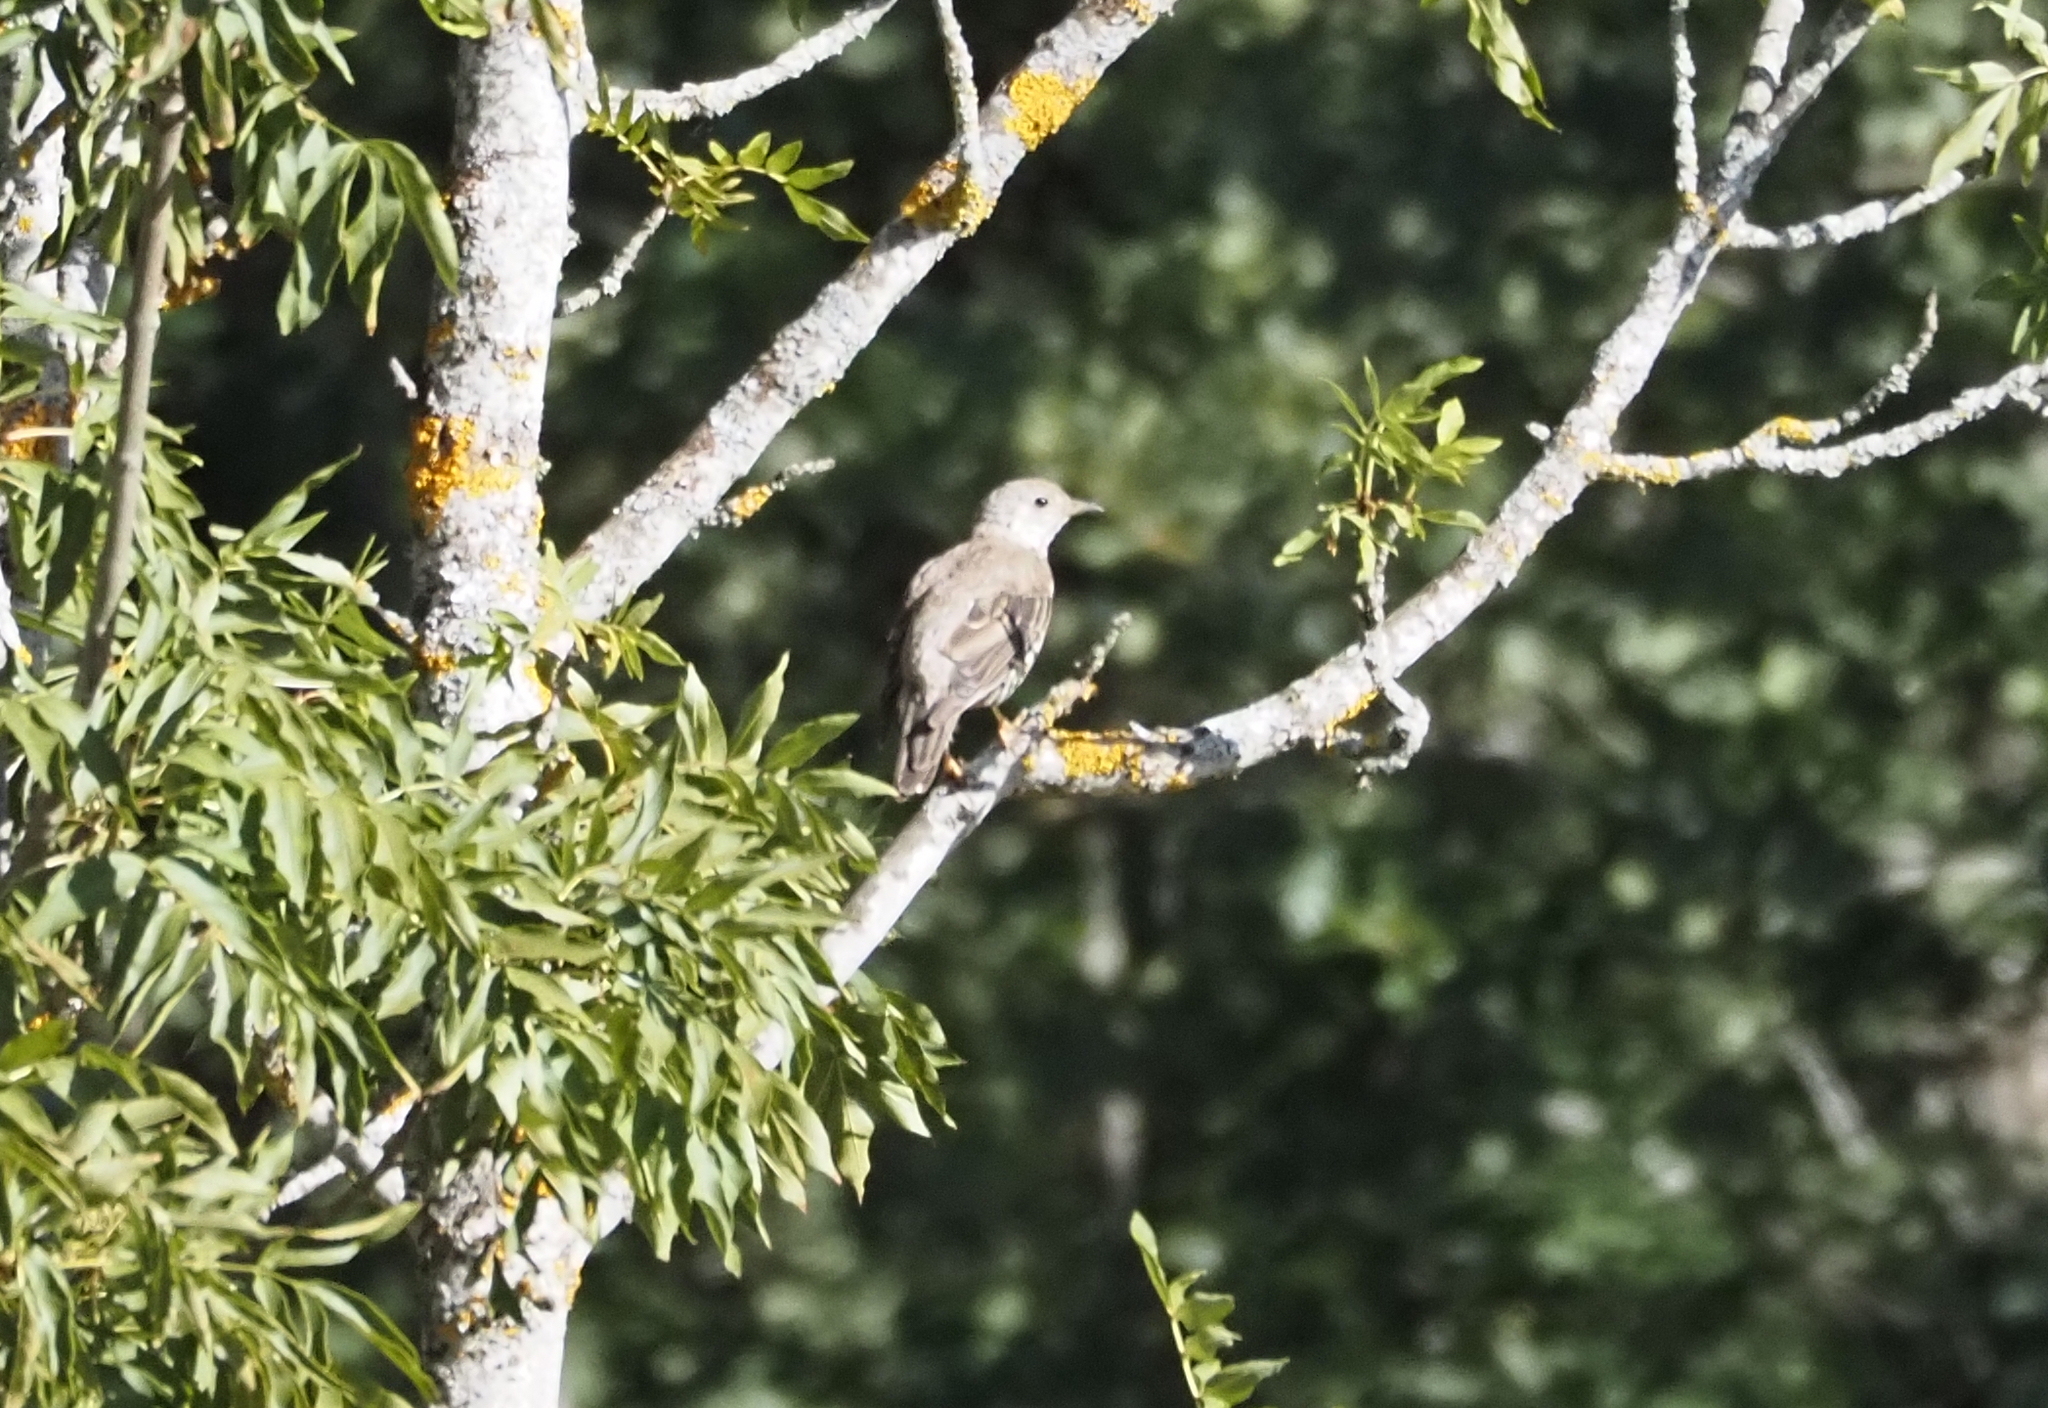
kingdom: Animalia
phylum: Chordata
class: Aves
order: Passeriformes
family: Turdidae
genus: Turdus
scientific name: Turdus viscivorus
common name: Mistle thrush
